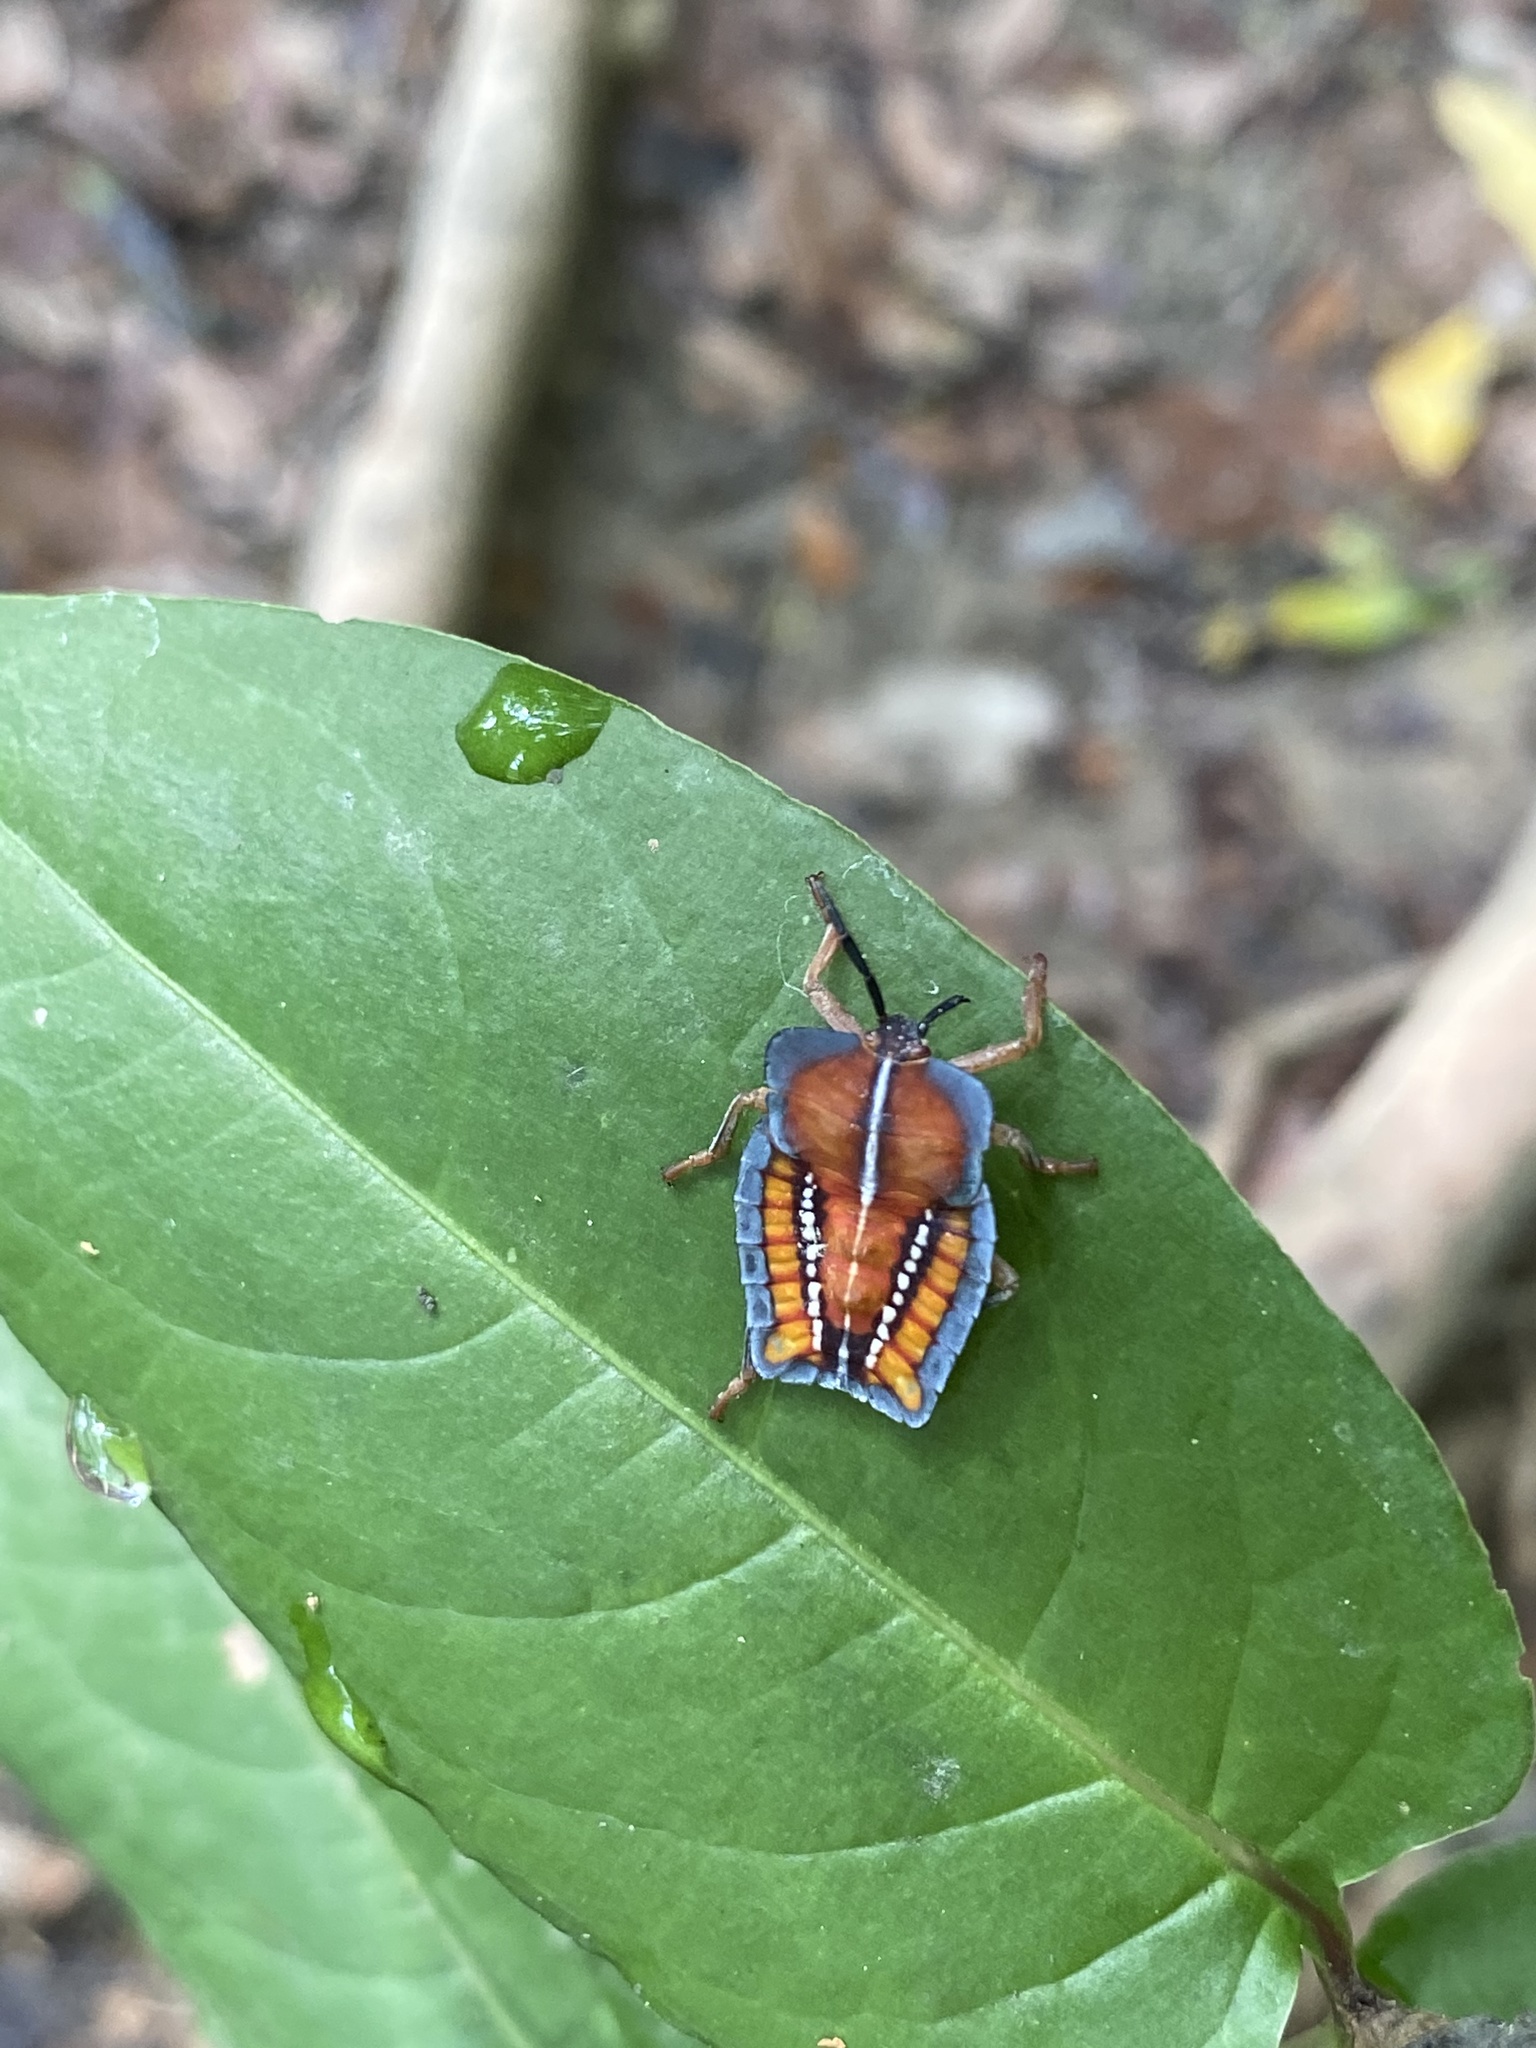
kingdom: Animalia
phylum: Arthropoda
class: Insecta
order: Hemiptera
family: Tessaratomidae
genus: Tessaratoma
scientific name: Tessaratoma papillosa
